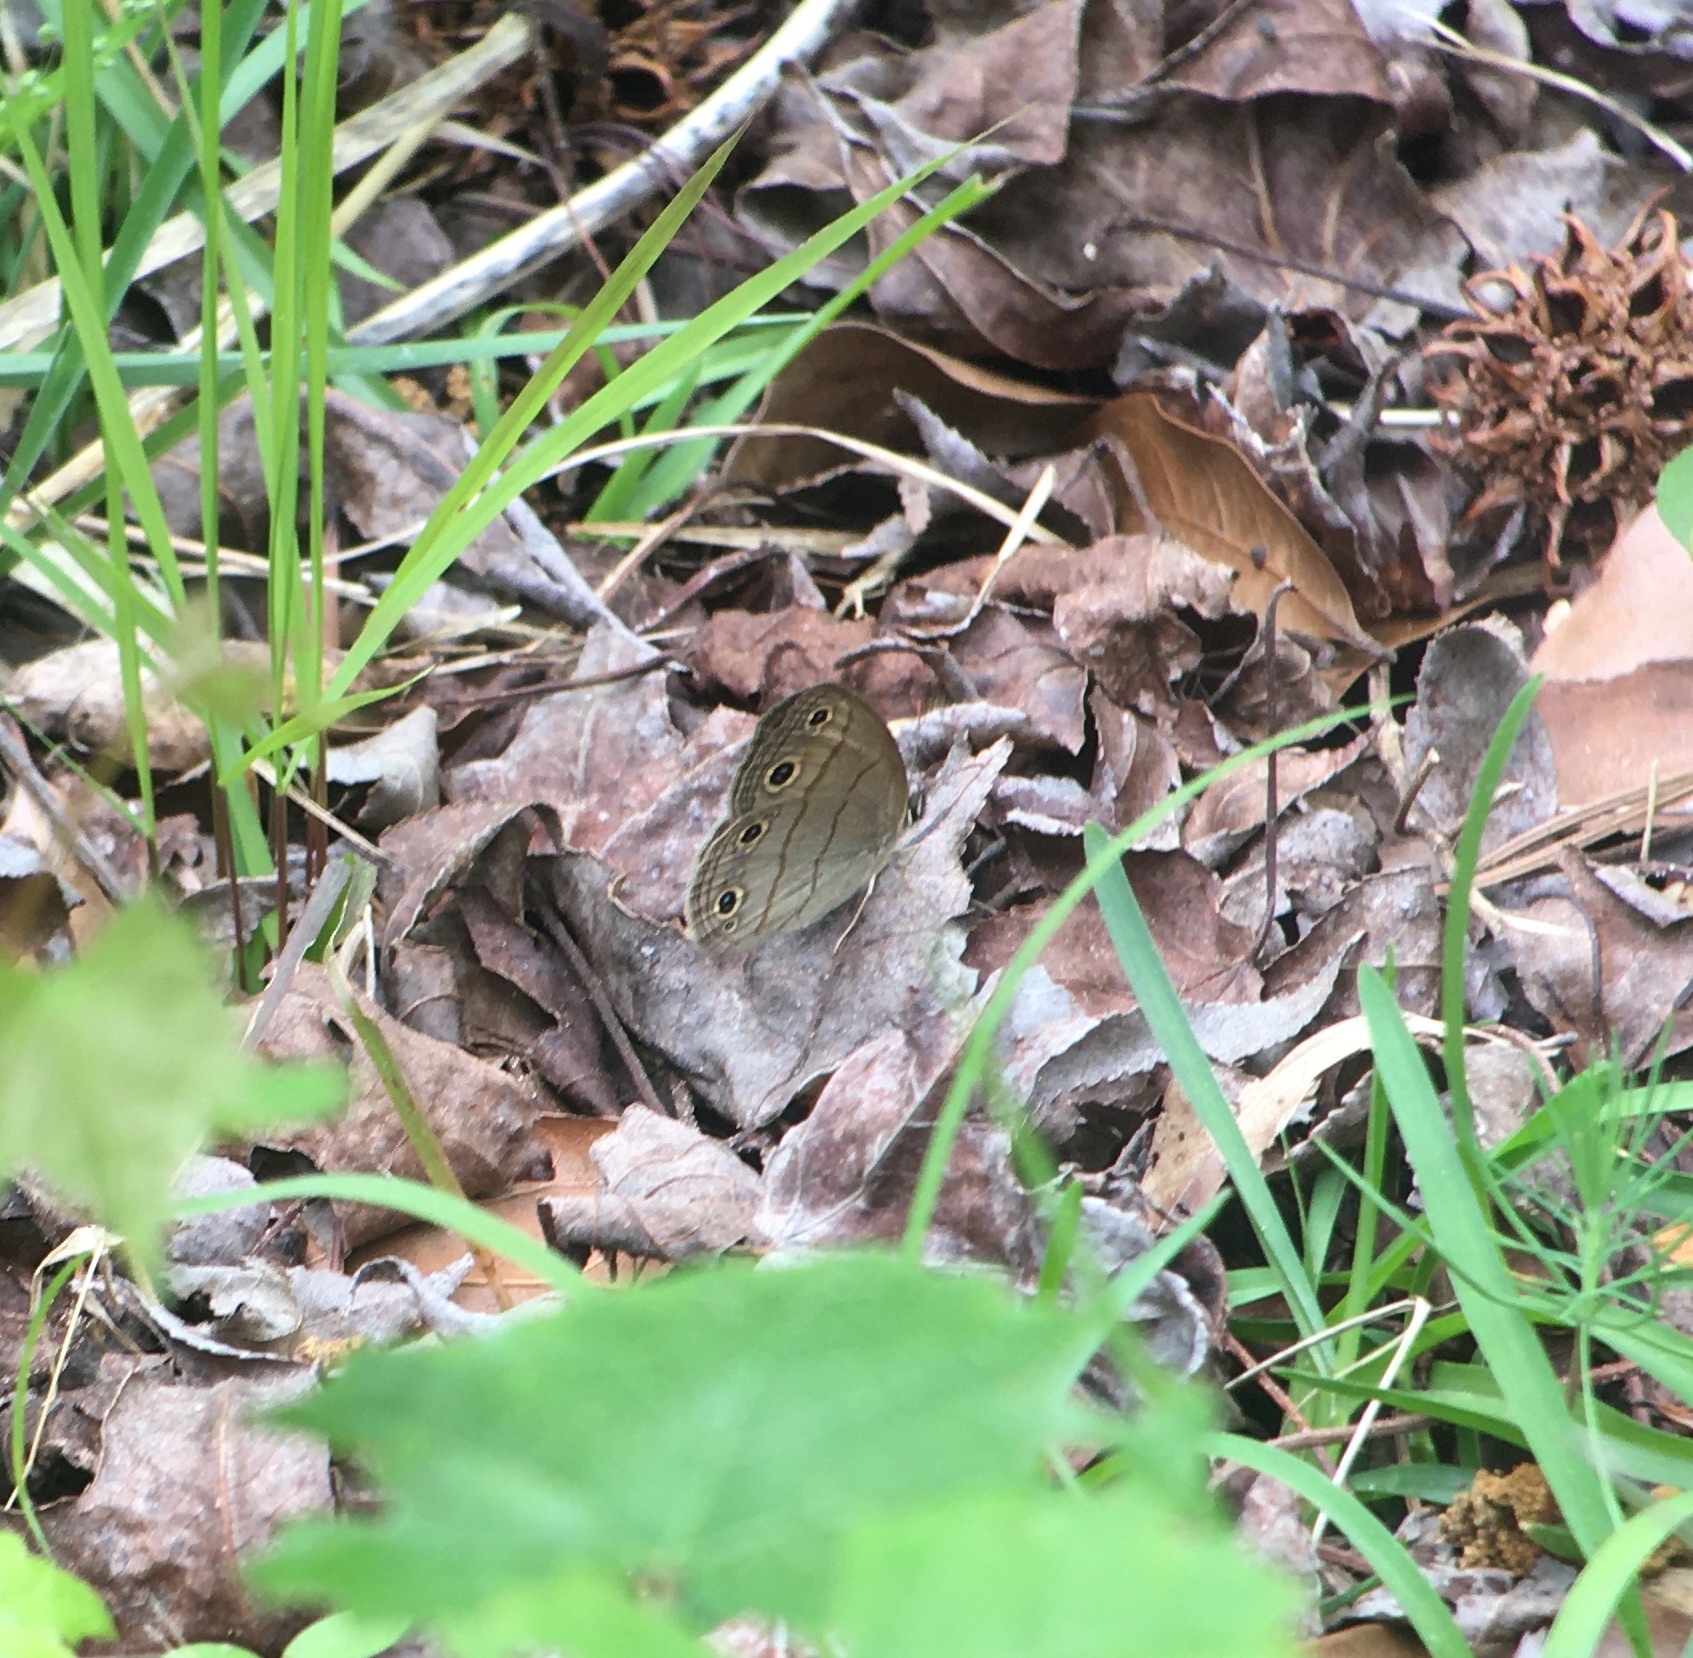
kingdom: Animalia
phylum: Arthropoda
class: Insecta
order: Lepidoptera
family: Nymphalidae
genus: Euptychia
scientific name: Euptychia cymela
